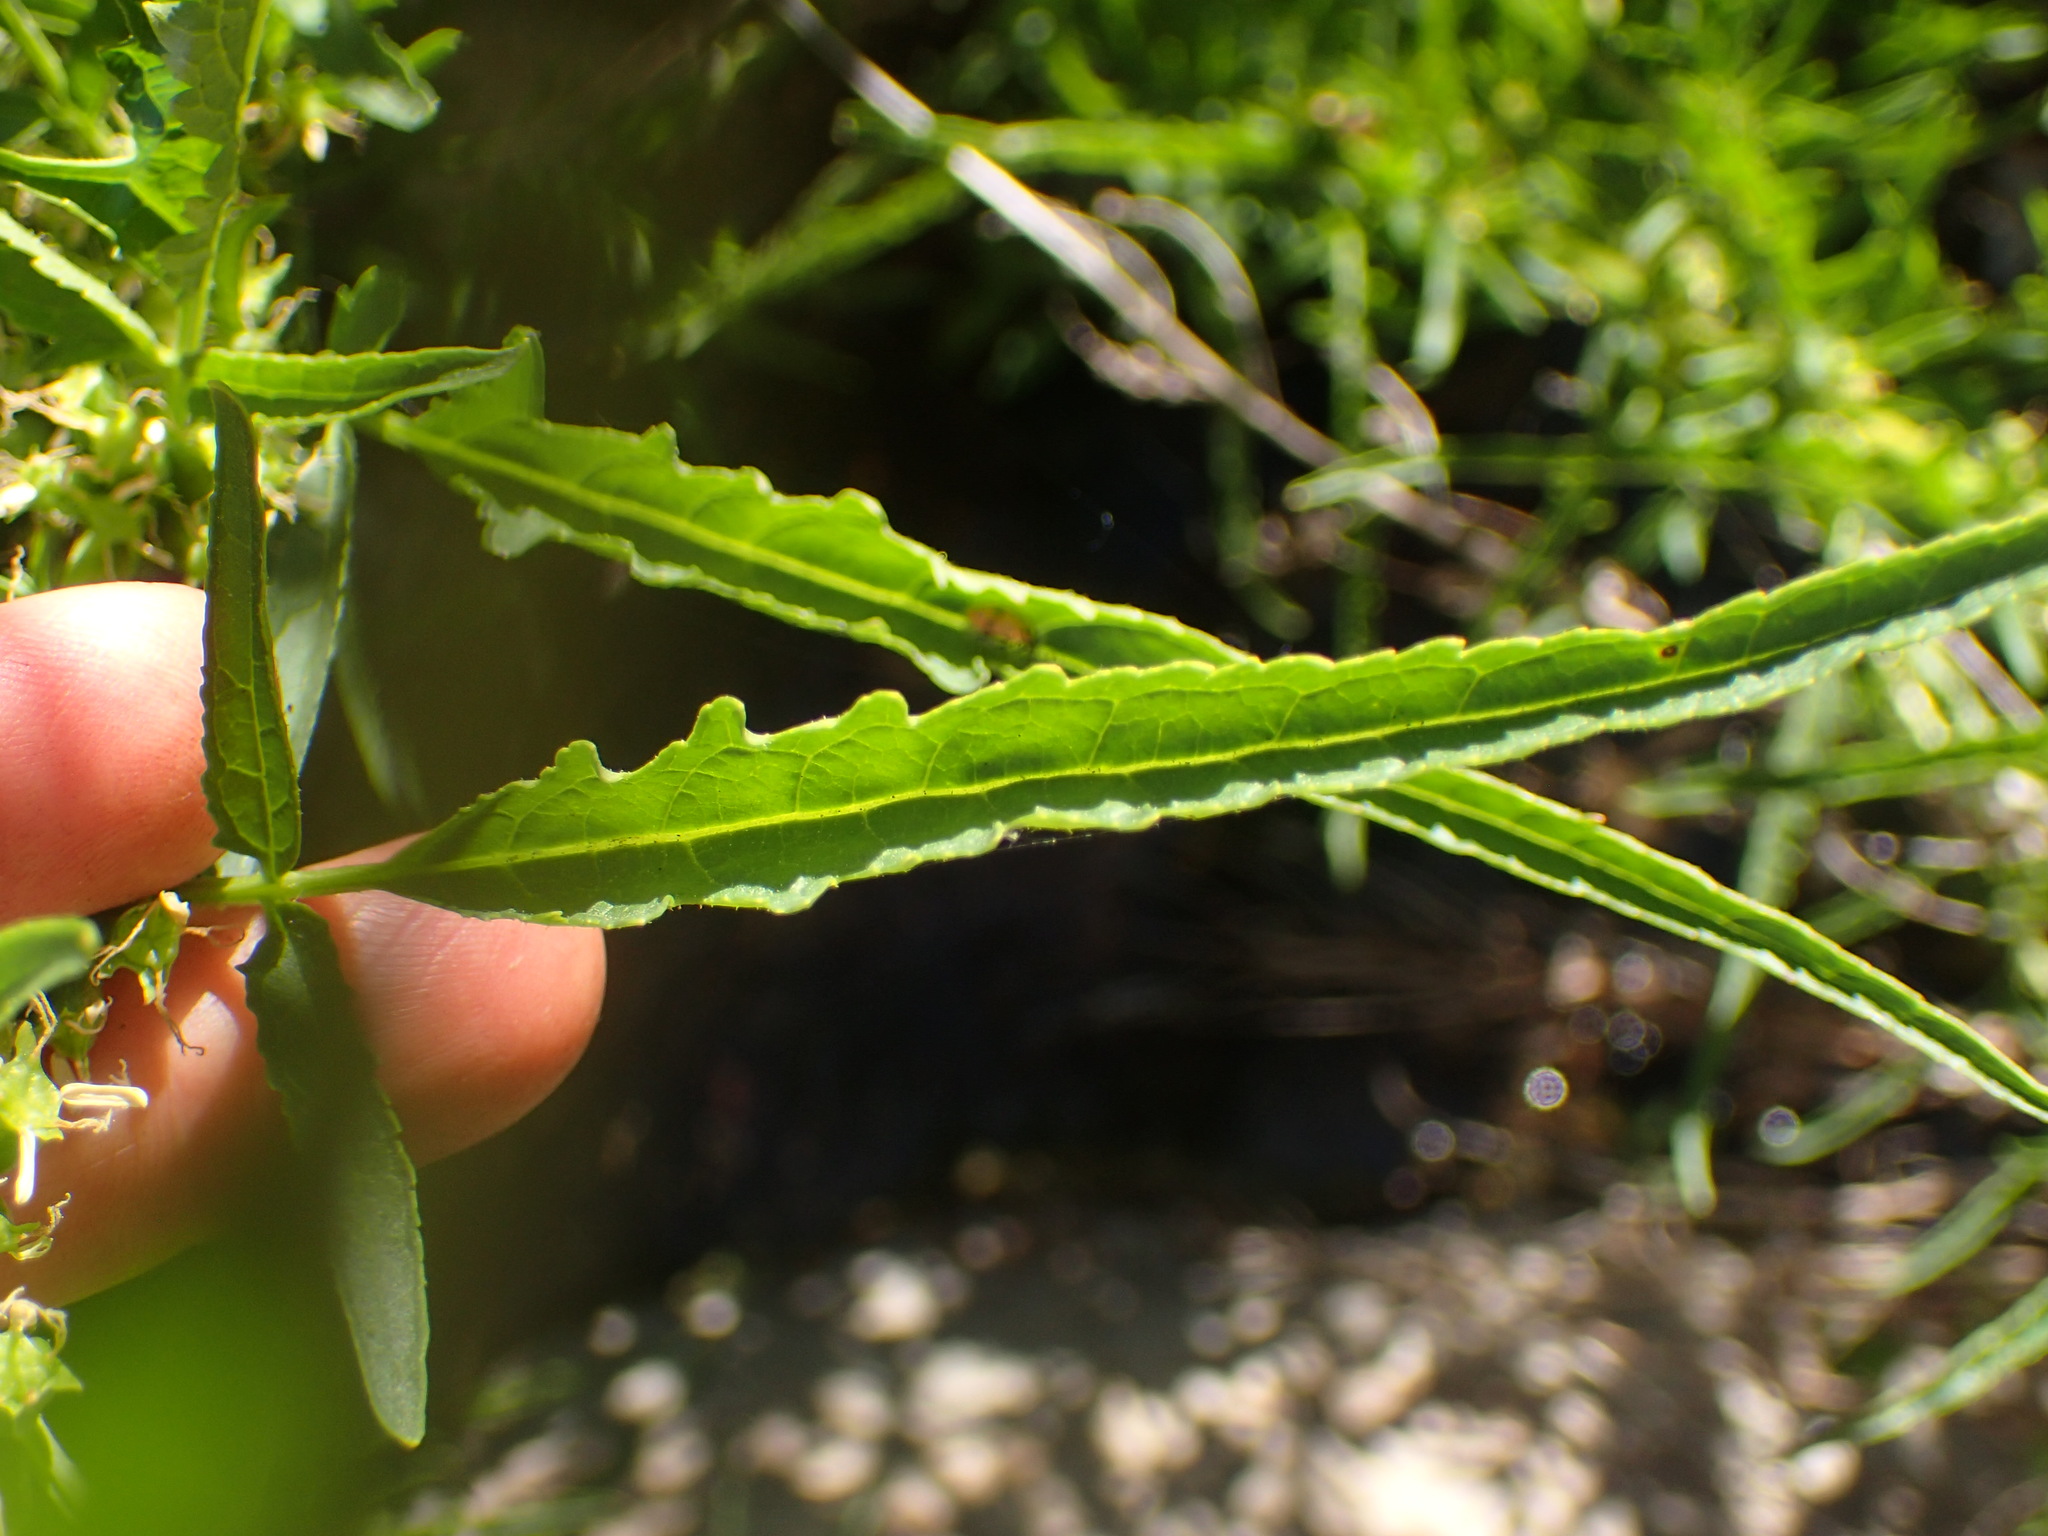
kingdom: Plantae
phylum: Tracheophyta
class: Magnoliopsida
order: Cucurbitales
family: Datiscaceae
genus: Datisca
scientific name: Datisca glomerata
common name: Durango-root
